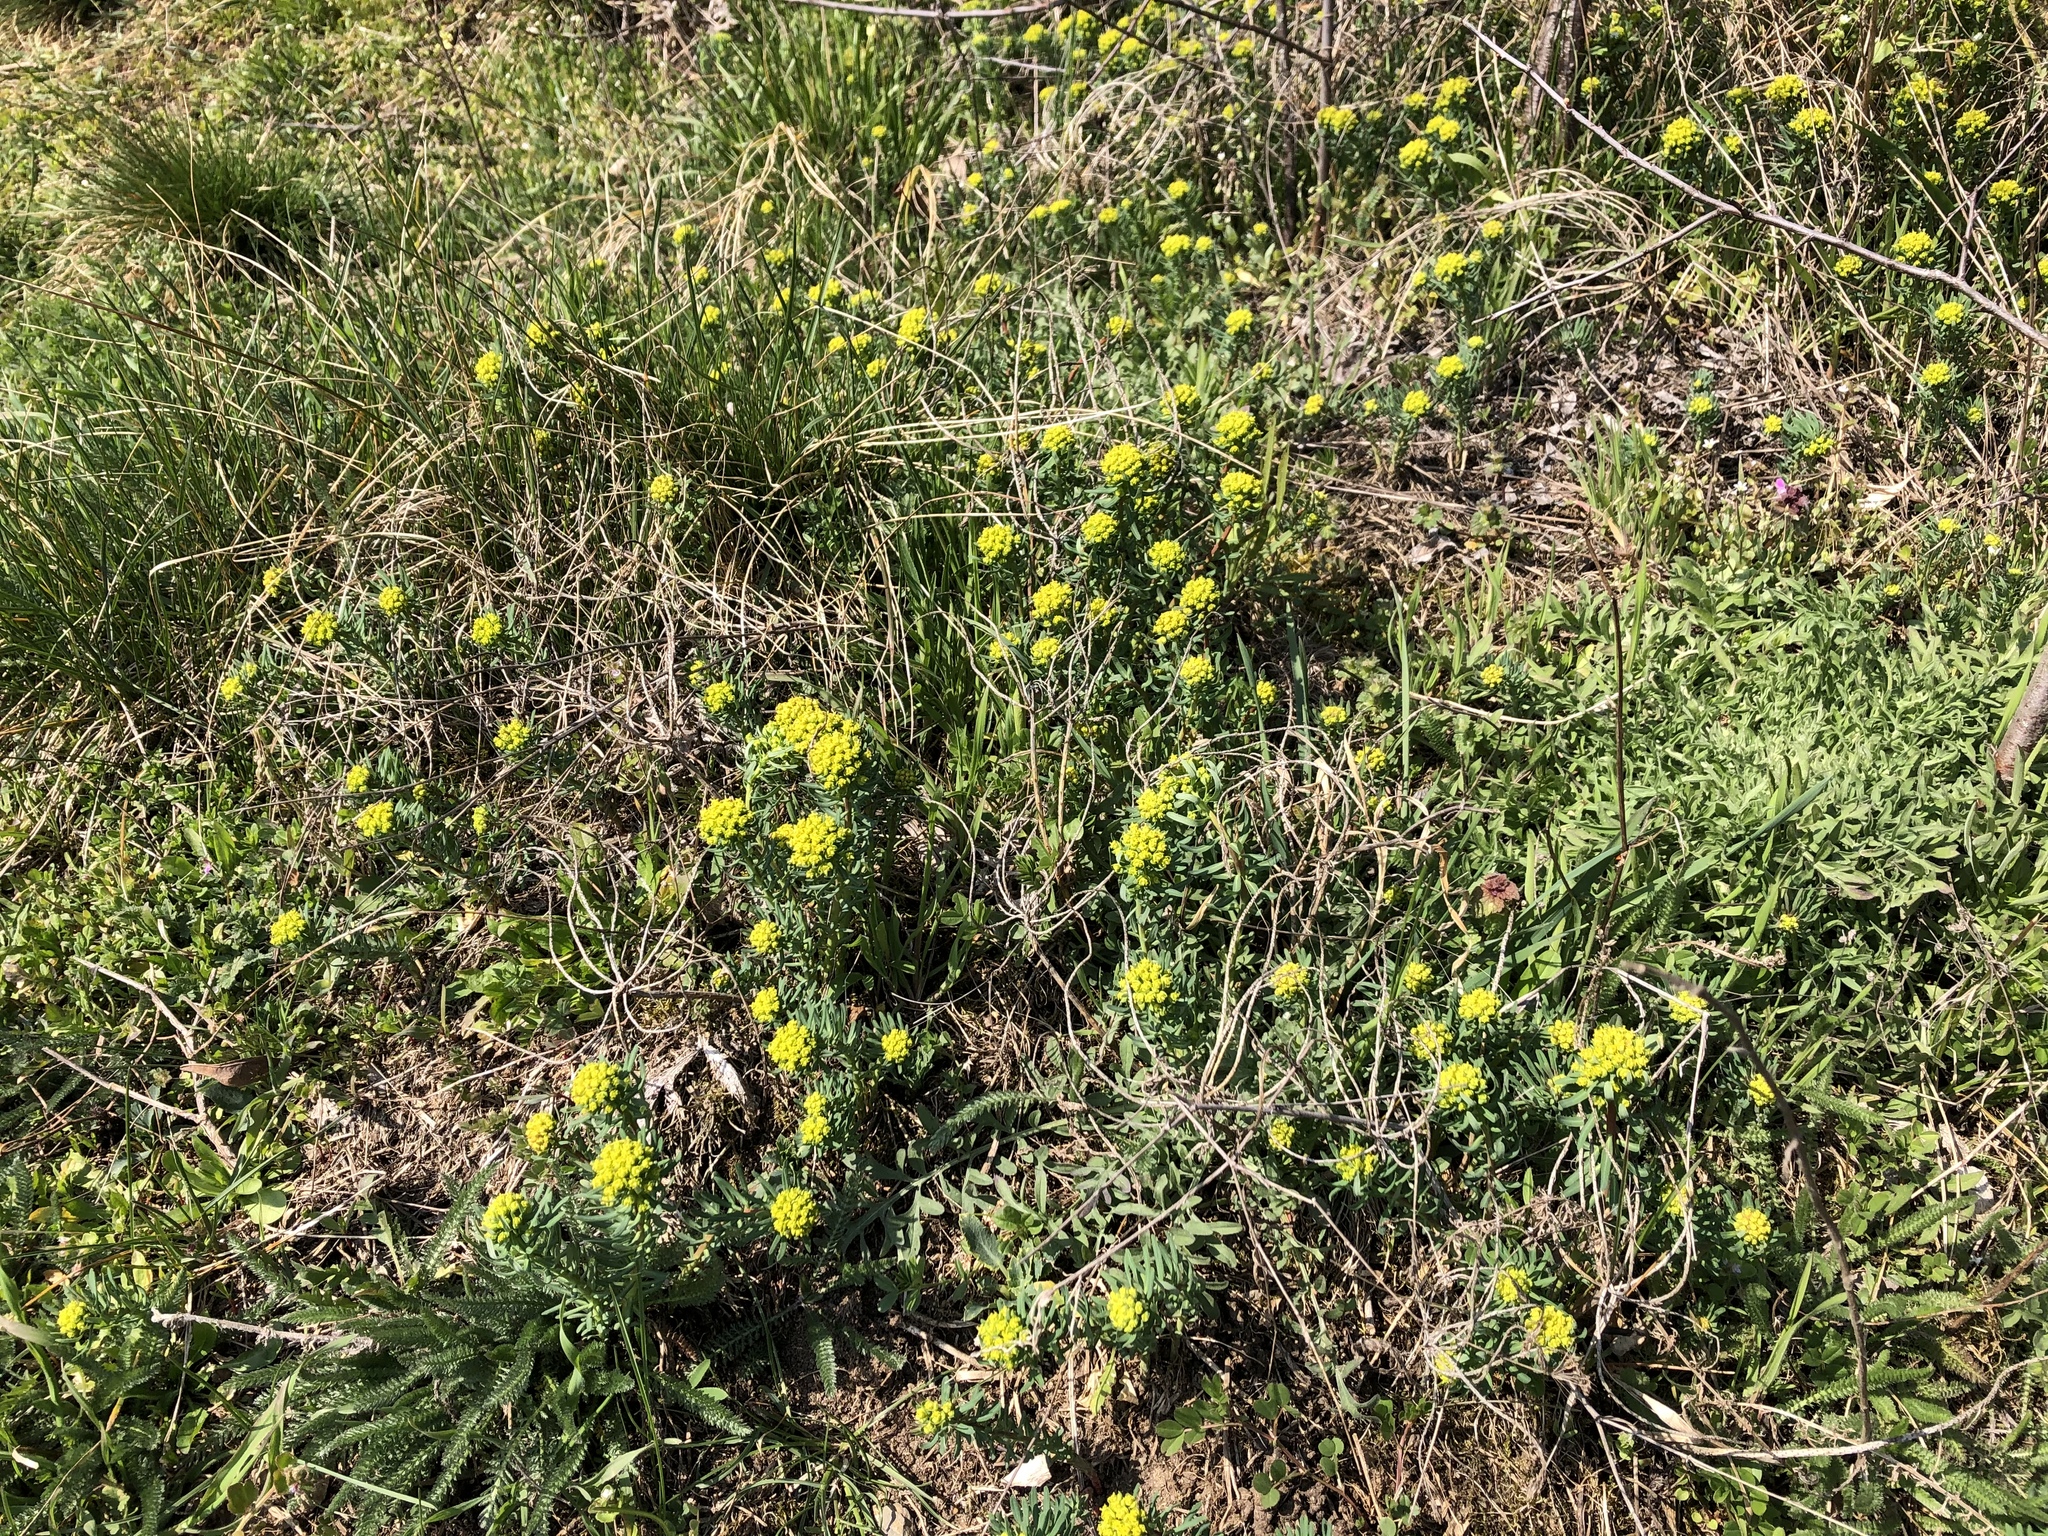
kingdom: Plantae
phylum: Tracheophyta
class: Magnoliopsida
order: Malpighiales
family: Euphorbiaceae
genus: Euphorbia
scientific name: Euphorbia cyparissias
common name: Cypress spurge
